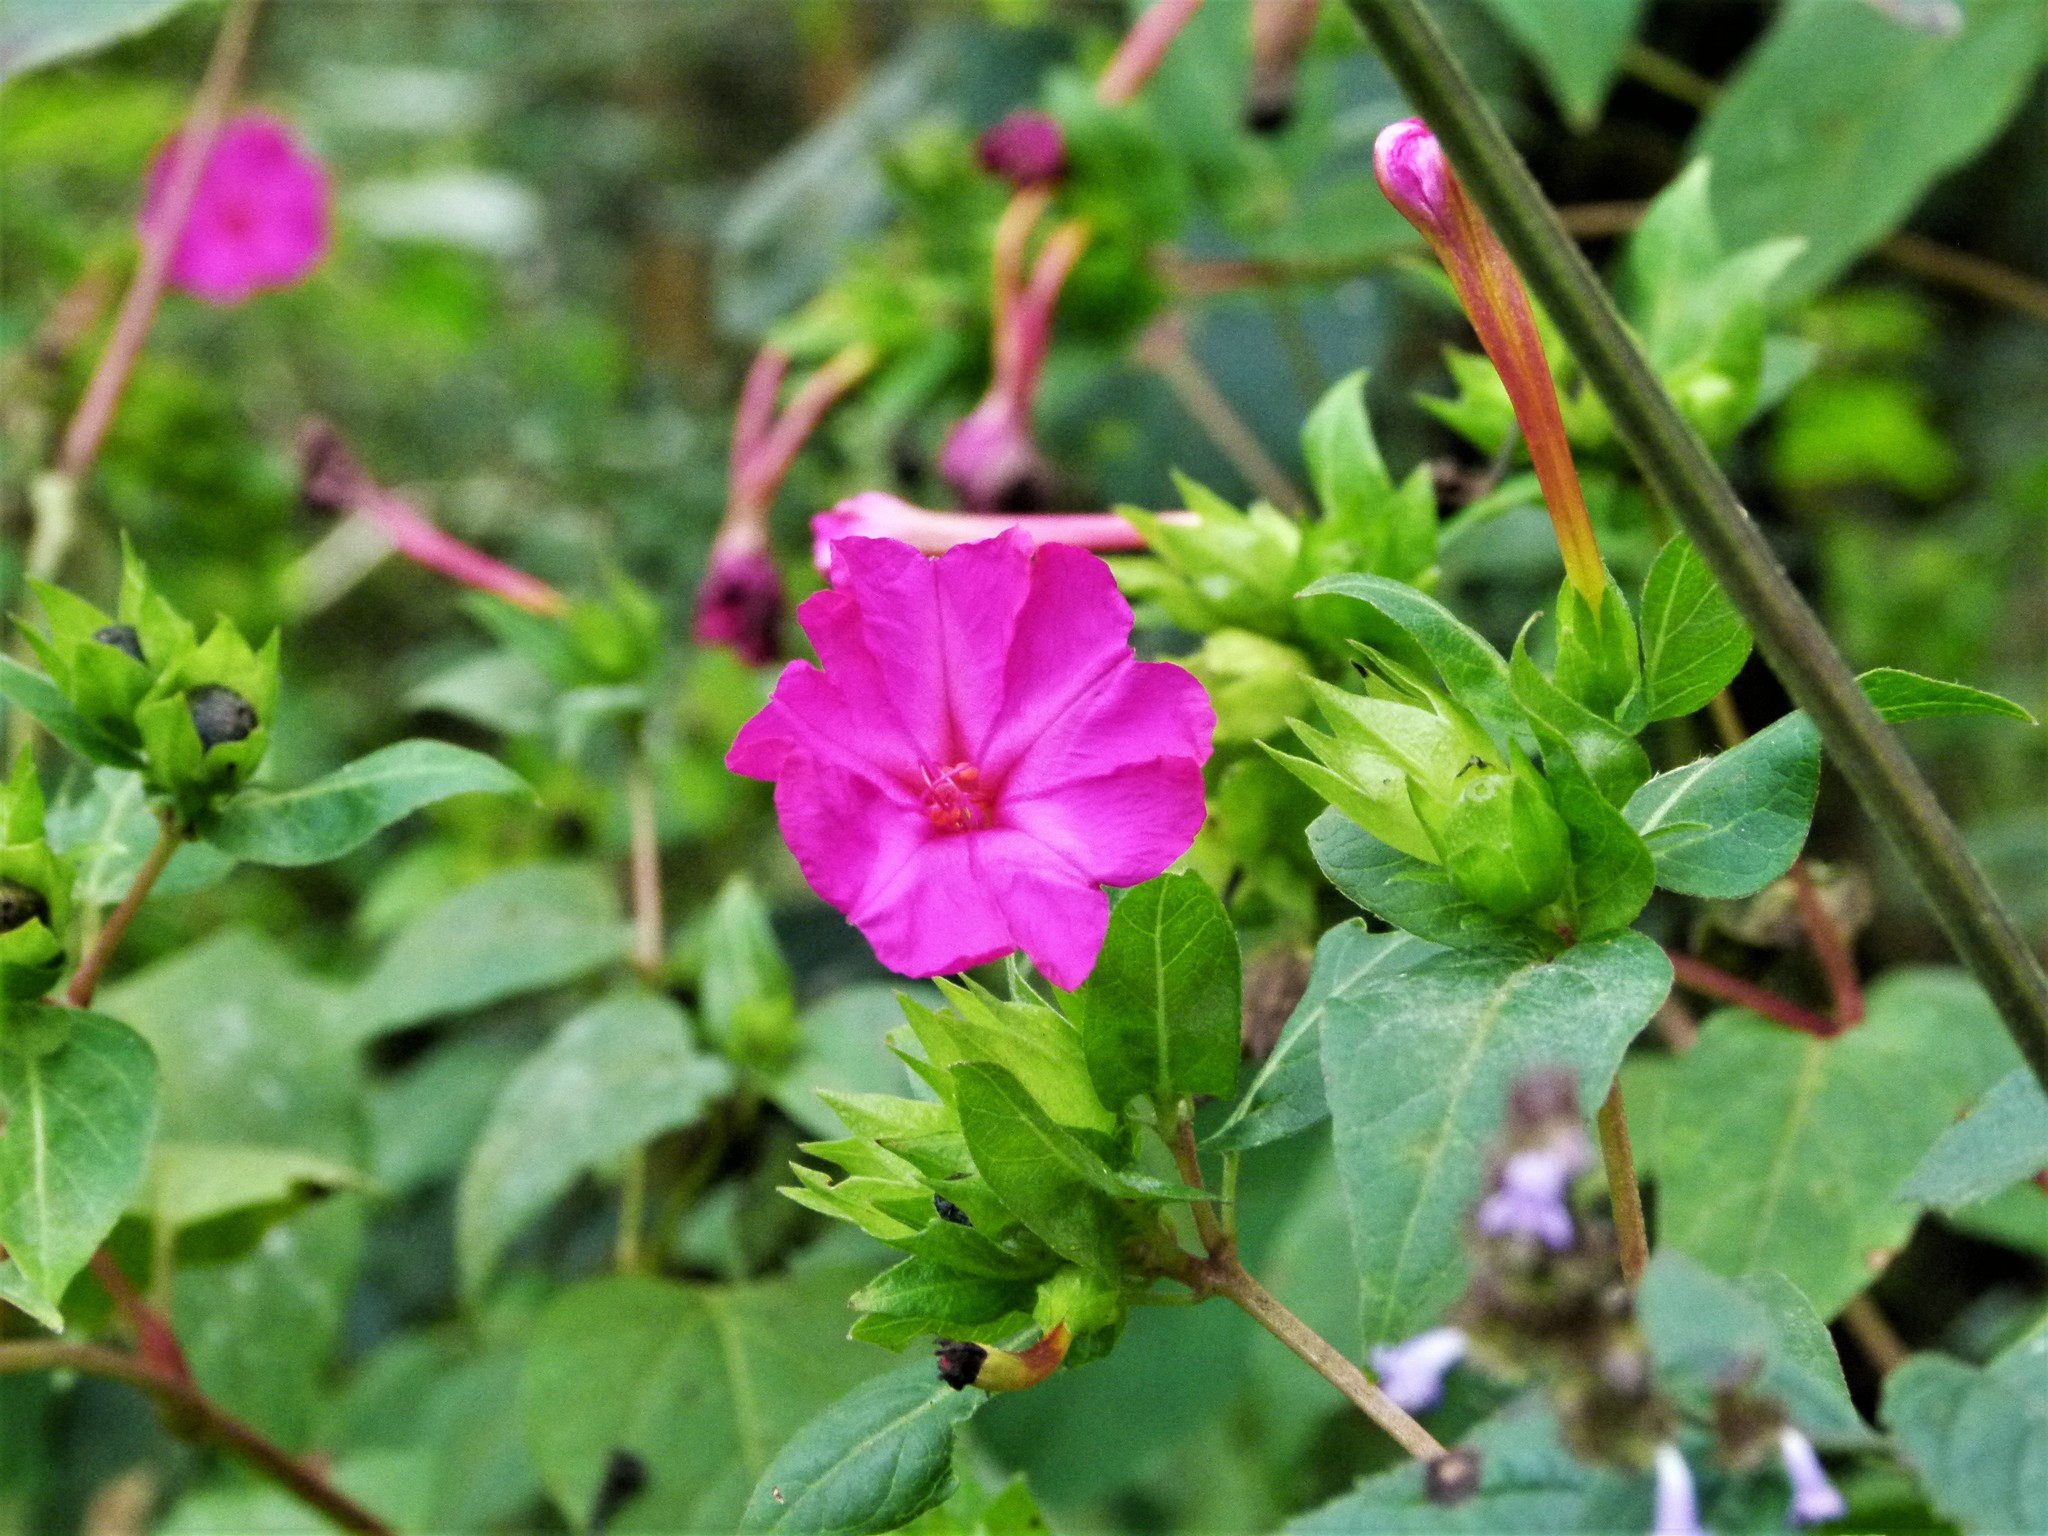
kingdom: Plantae
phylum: Tracheophyta
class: Magnoliopsida
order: Caryophyllales
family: Nyctaginaceae
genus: Mirabilis
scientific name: Mirabilis jalapa
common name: Marvel-of-peru
